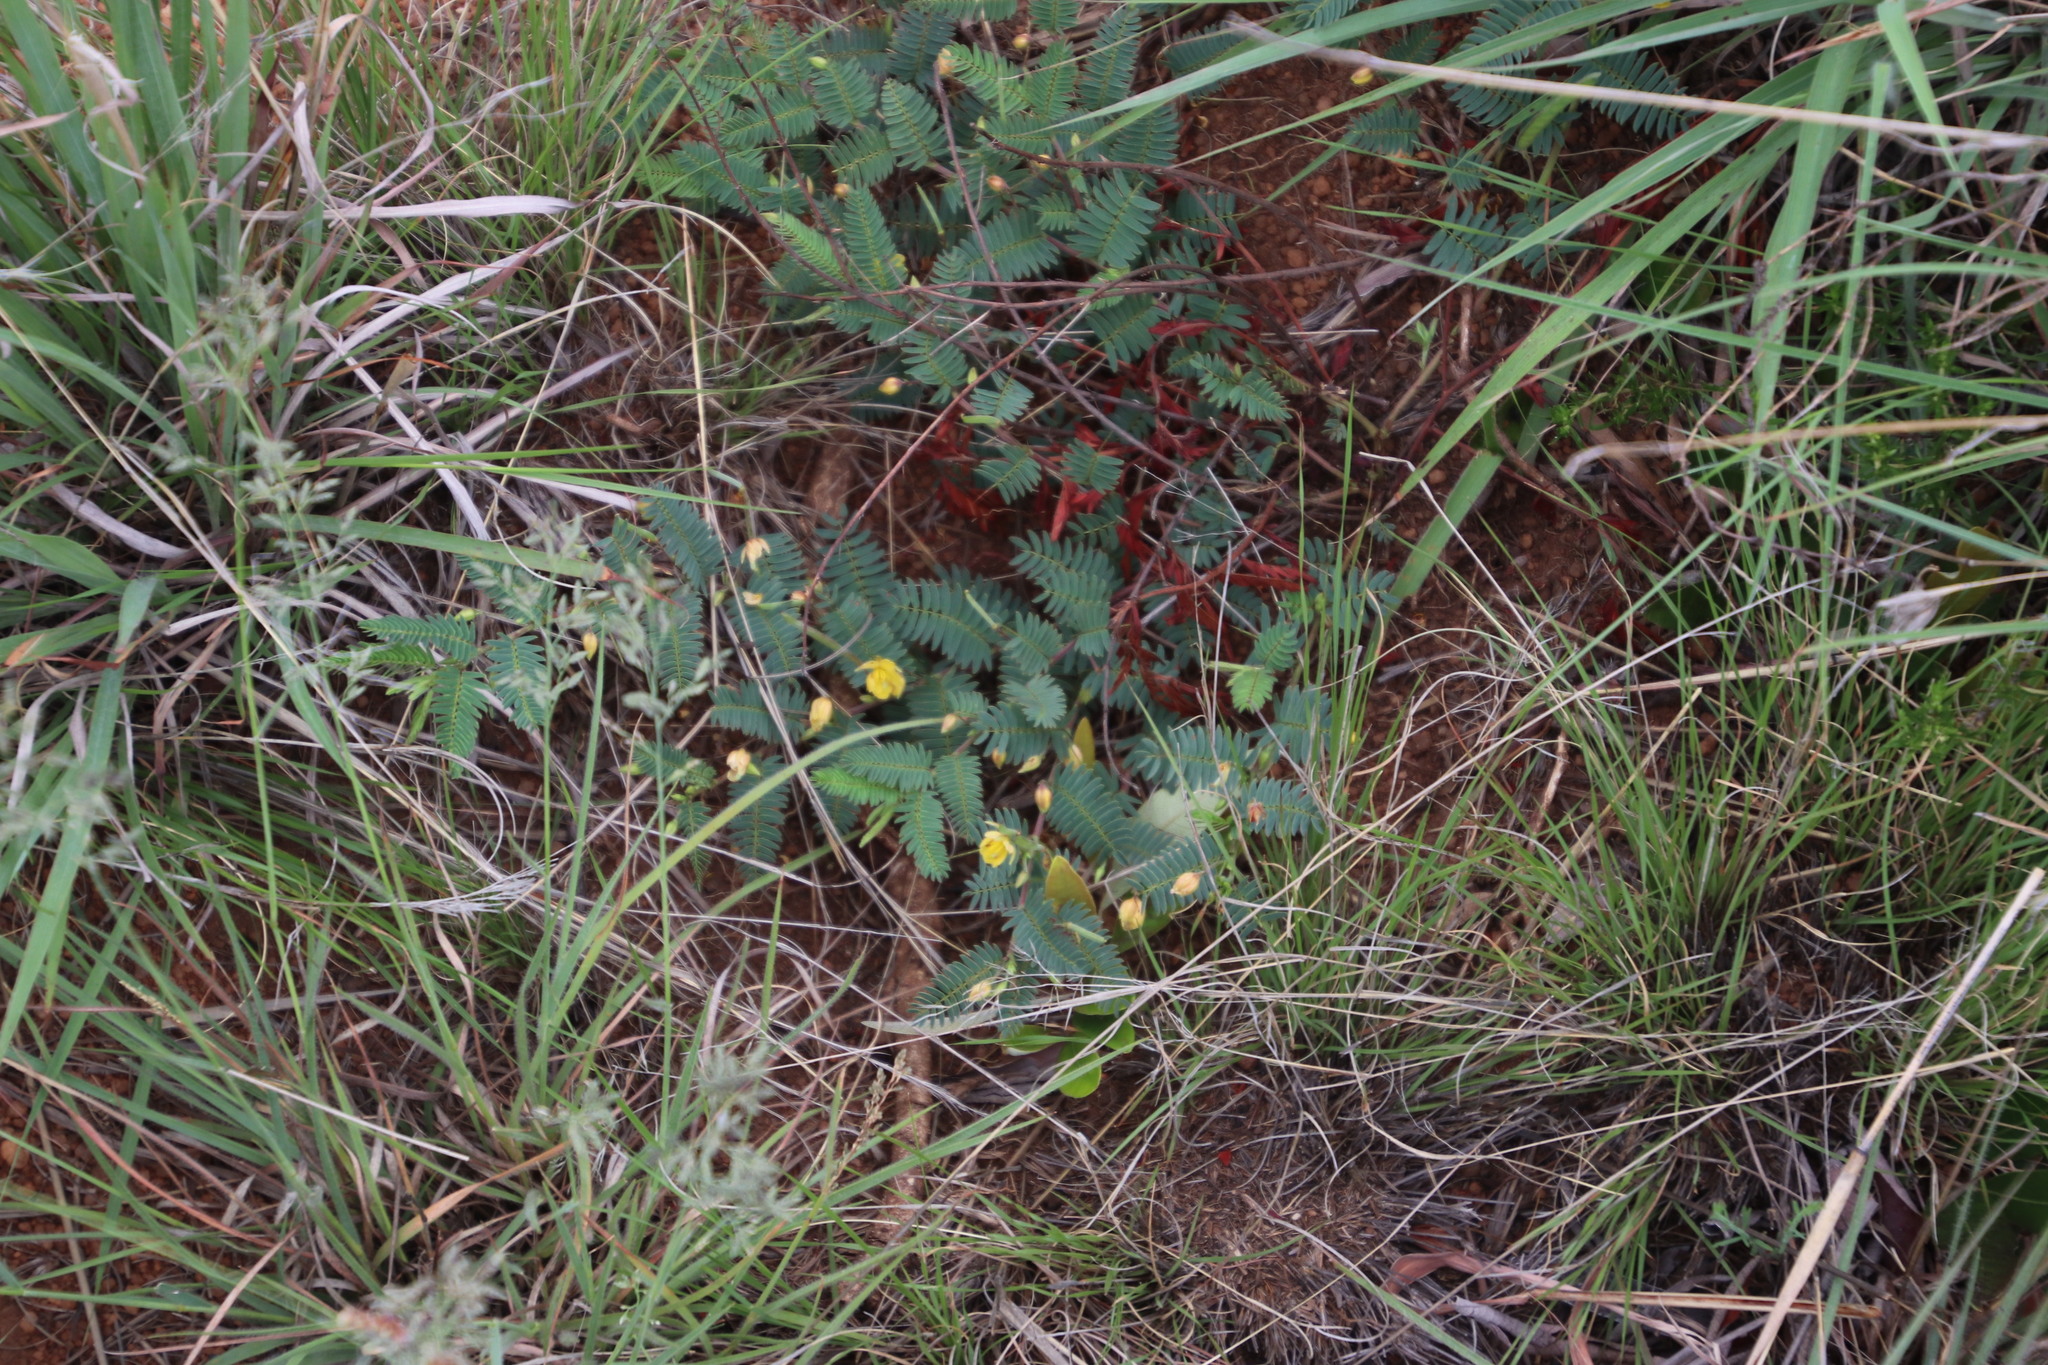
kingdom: Plantae
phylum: Tracheophyta
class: Magnoliopsida
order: Fabales
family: Fabaceae
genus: Chamaecrista
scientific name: Chamaecrista biensis
